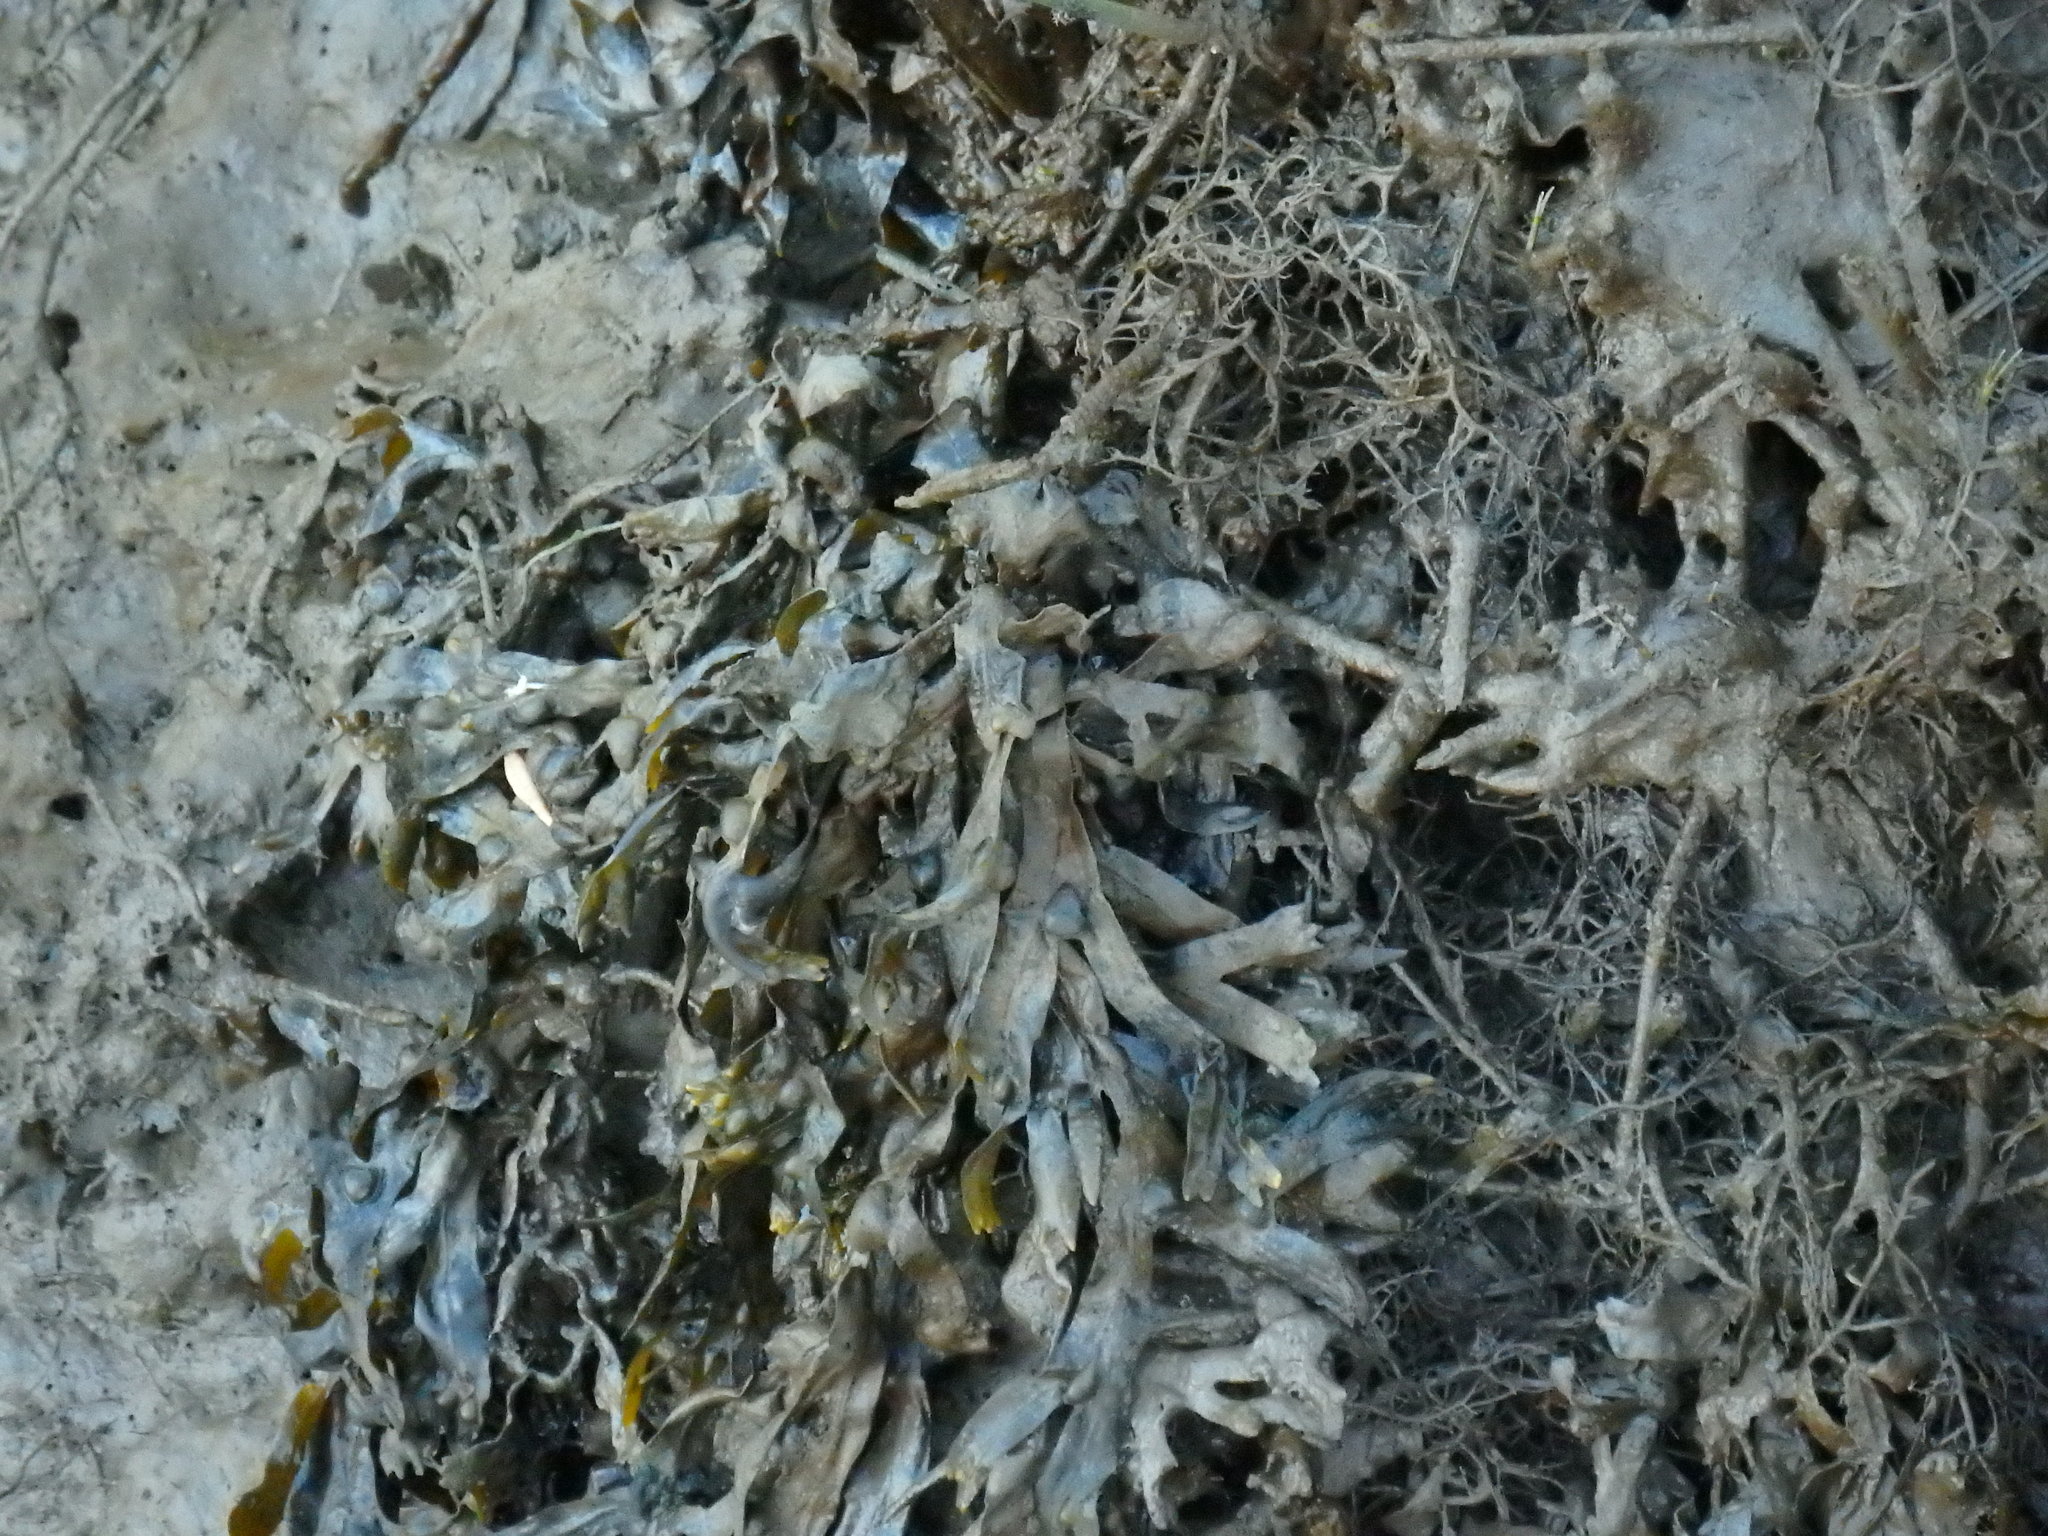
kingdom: Chromista
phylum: Ochrophyta
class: Phaeophyceae
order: Fucales
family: Fucaceae
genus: Fucus
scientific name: Fucus vesiculosus
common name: Bladder wrack
